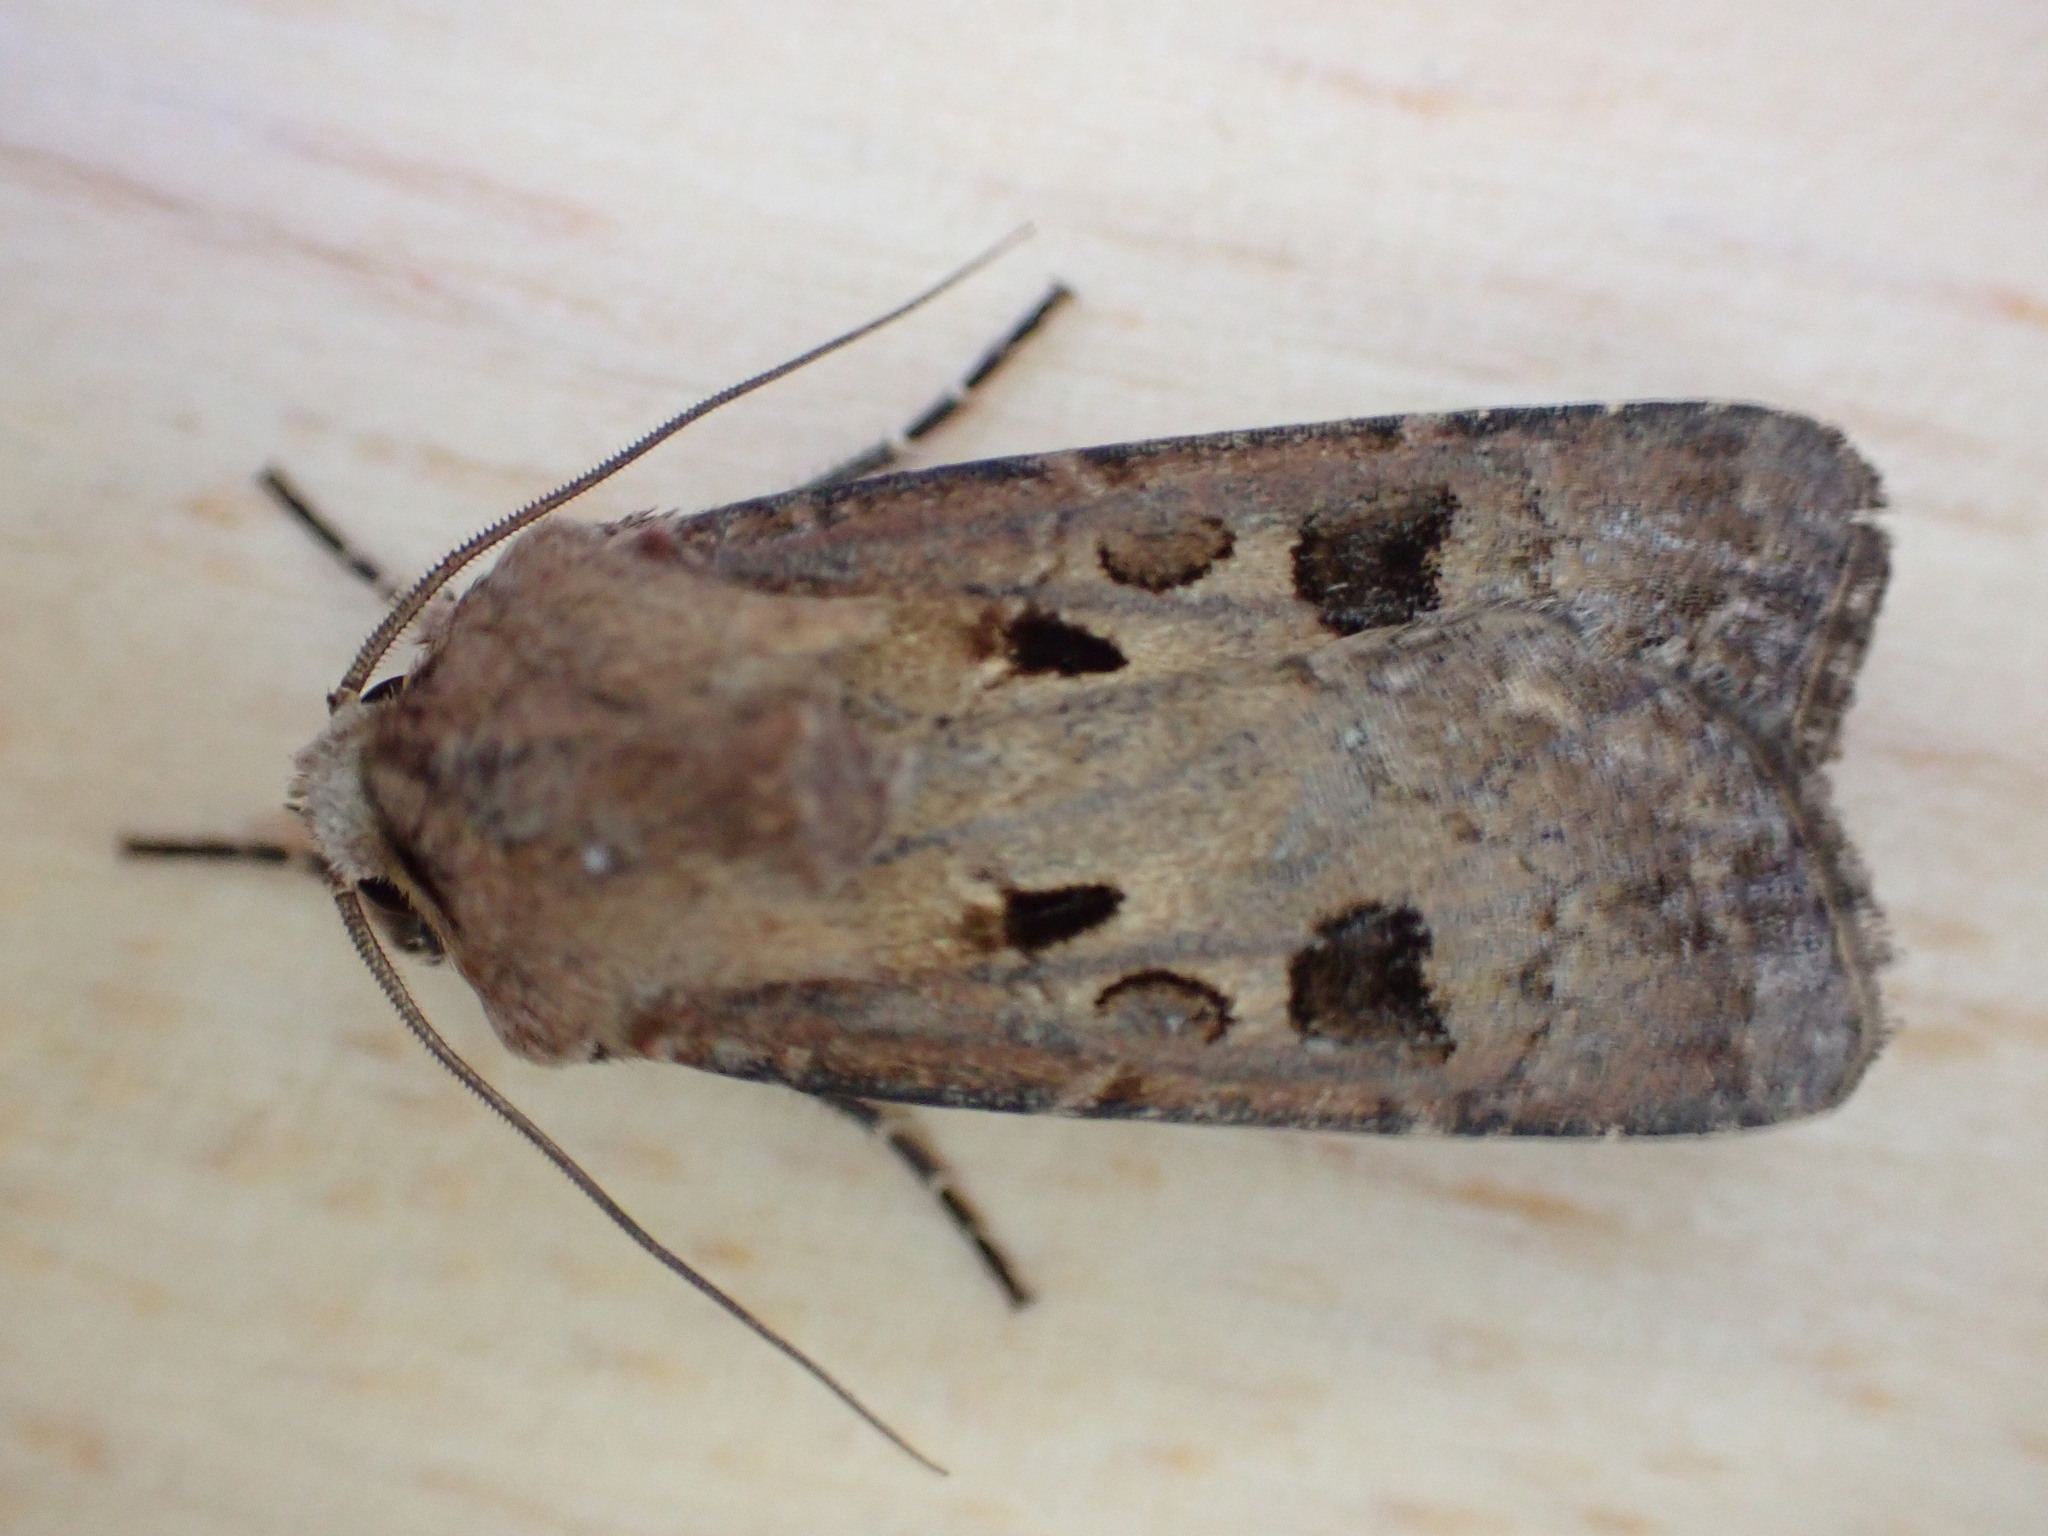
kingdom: Animalia
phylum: Arthropoda
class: Insecta
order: Lepidoptera
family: Noctuidae
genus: Agrotis
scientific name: Agrotis exclamationis
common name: Heart and dart
